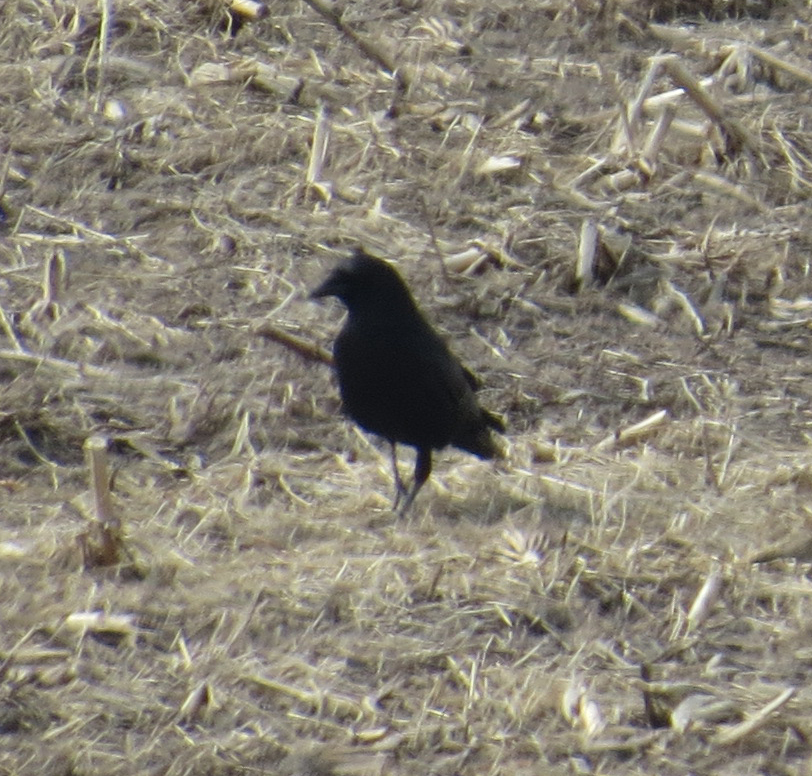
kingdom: Animalia
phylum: Chordata
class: Aves
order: Passeriformes
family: Corvidae
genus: Corvus
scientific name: Corvus brachyrhynchos
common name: American crow
